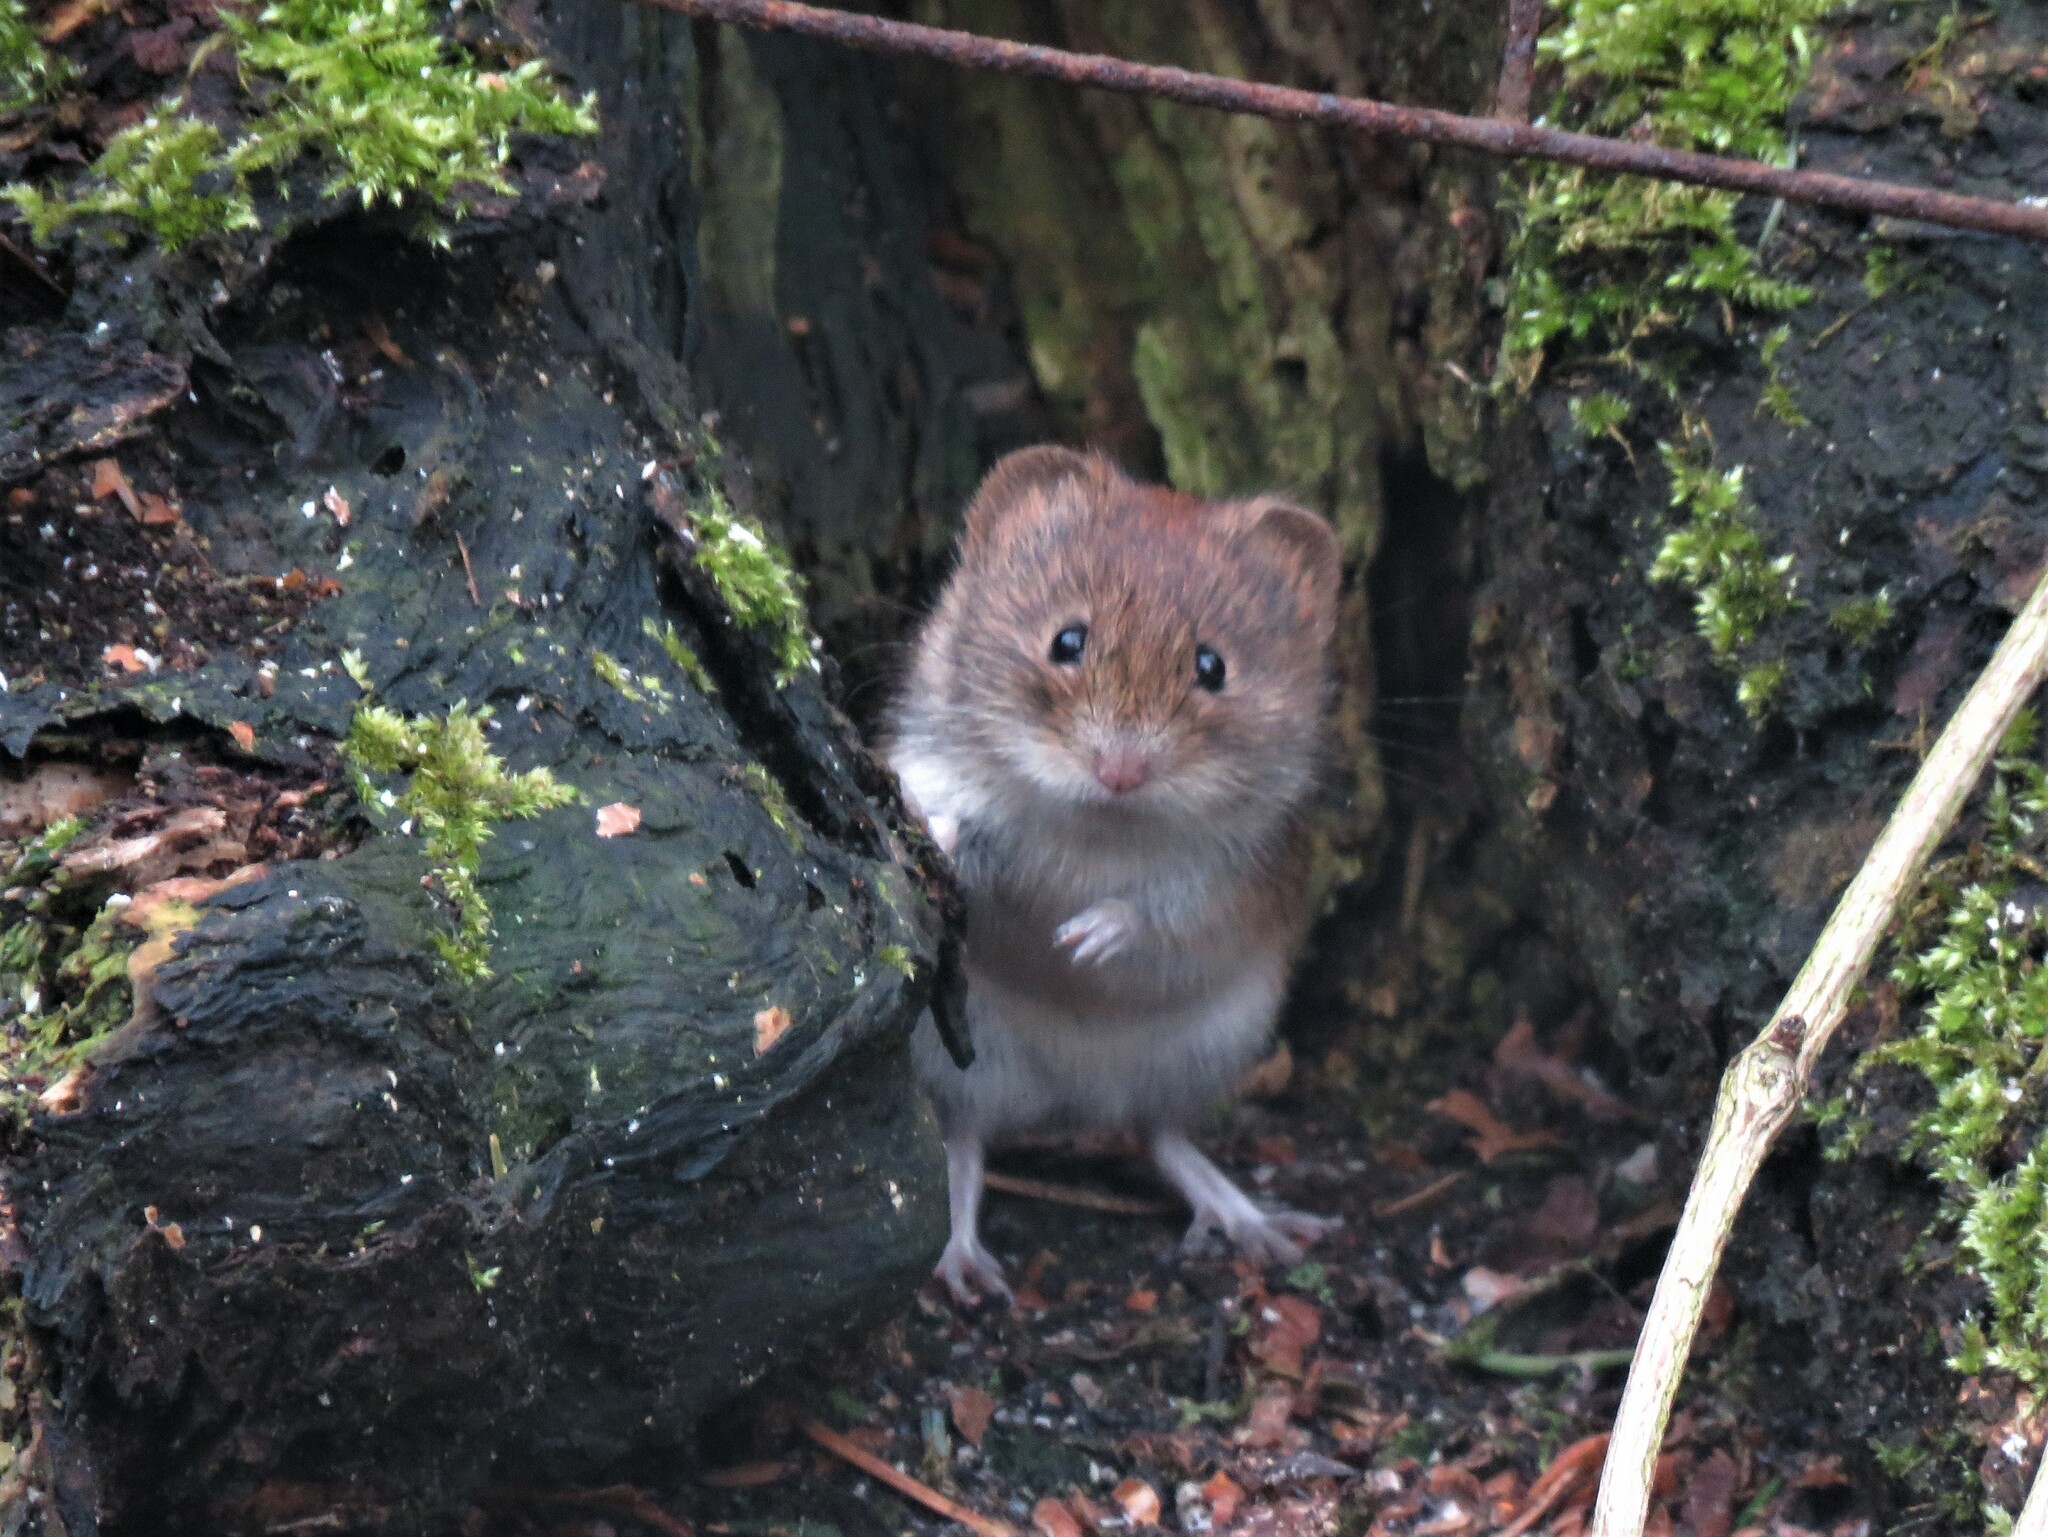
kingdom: Animalia
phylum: Chordata
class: Mammalia
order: Rodentia
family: Cricetidae
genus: Myodes
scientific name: Myodes glareolus
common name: Bank vole
